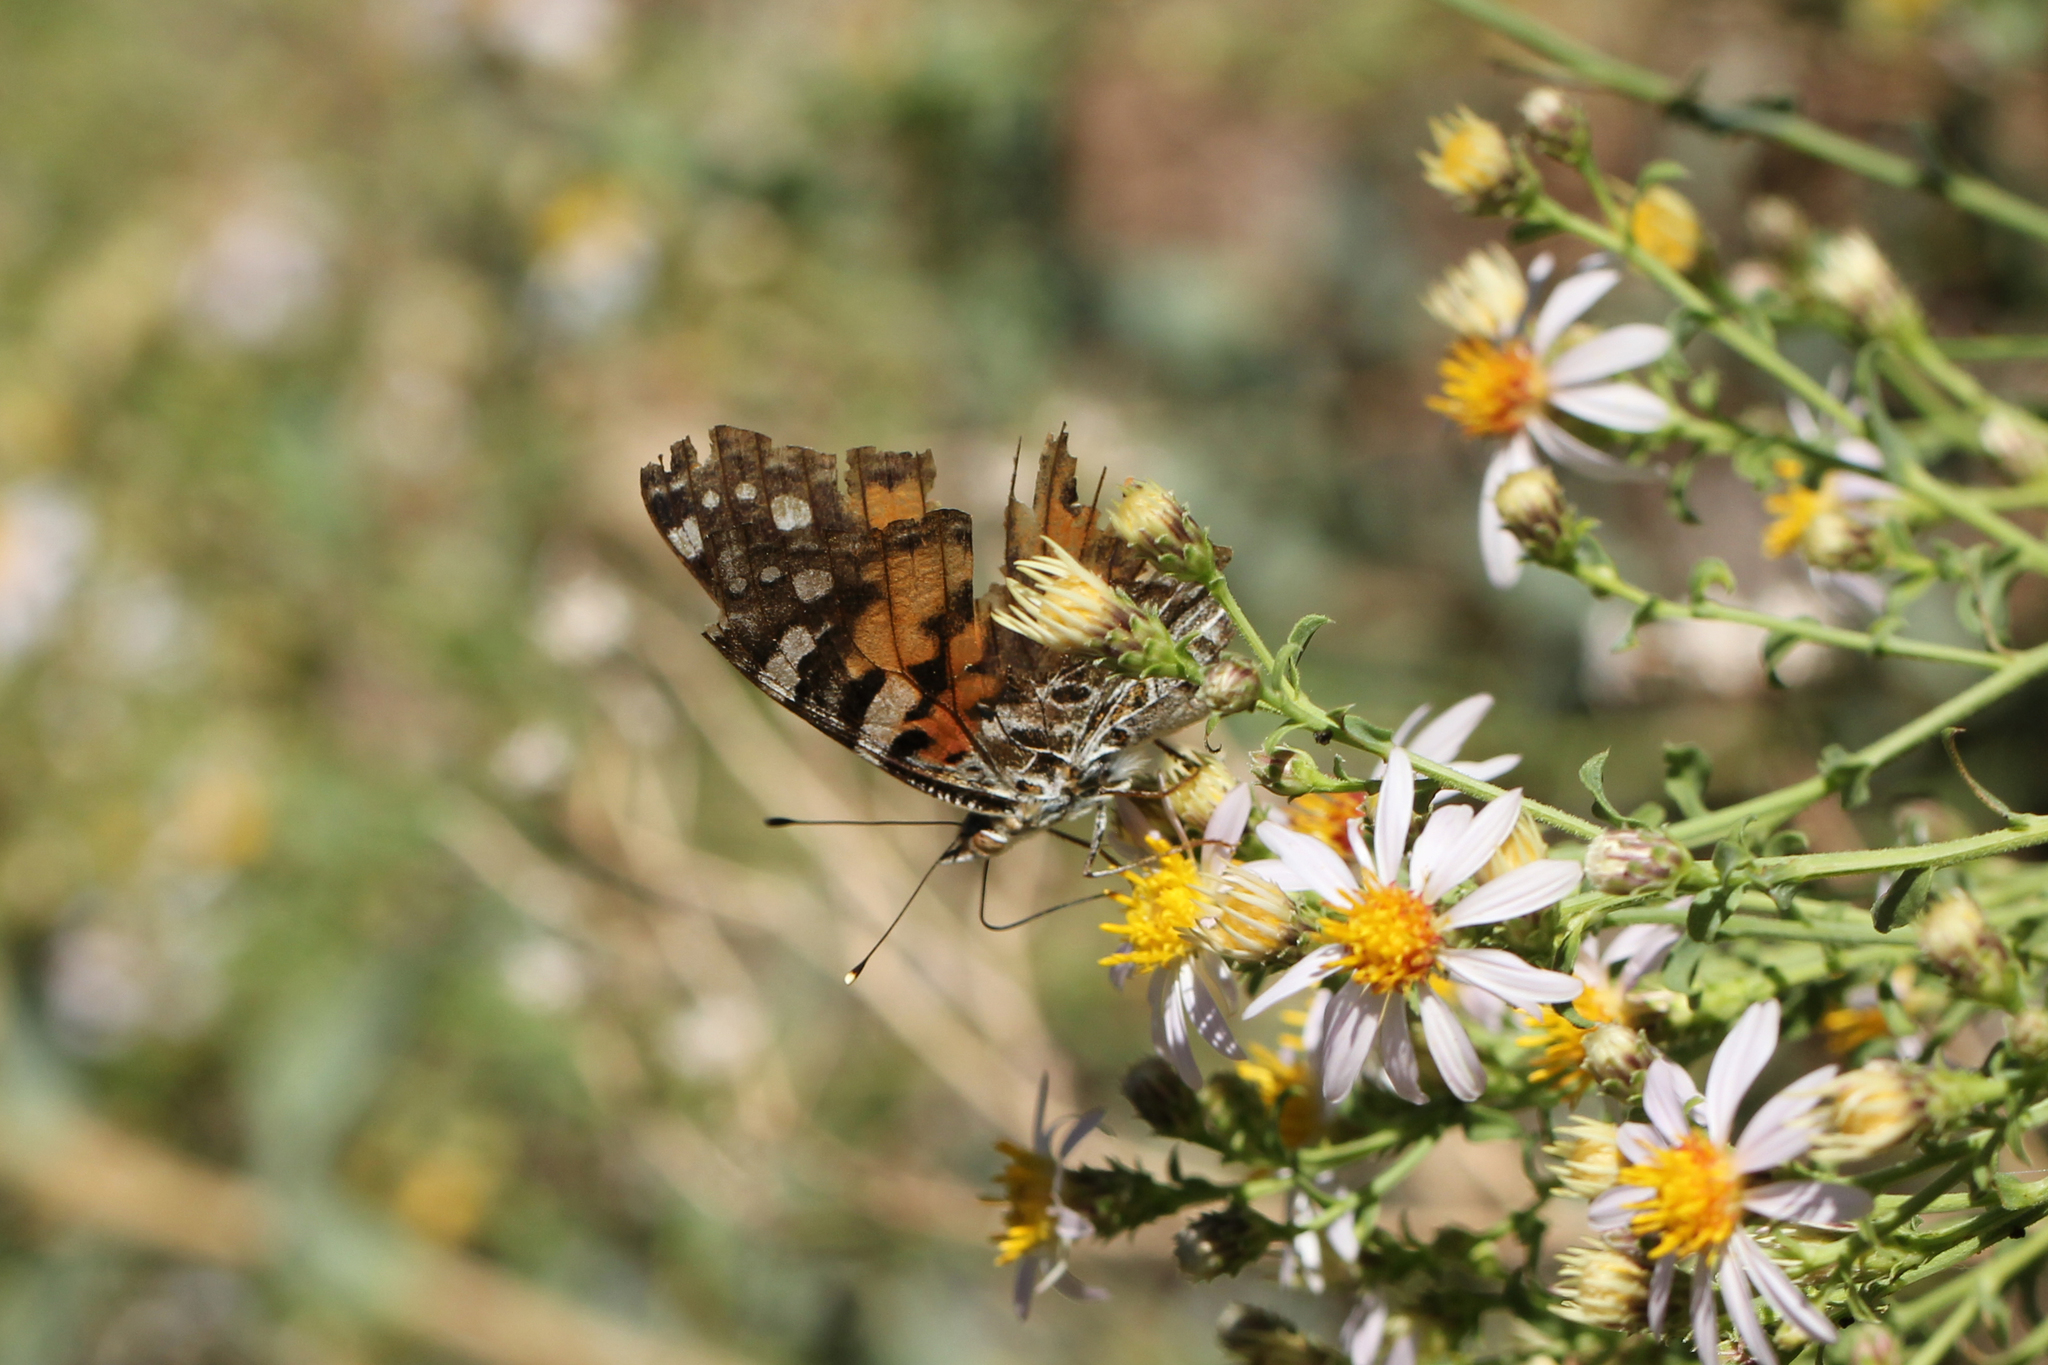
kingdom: Animalia
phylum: Arthropoda
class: Insecta
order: Lepidoptera
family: Nymphalidae
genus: Vanessa
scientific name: Vanessa cardui
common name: Painted lady
